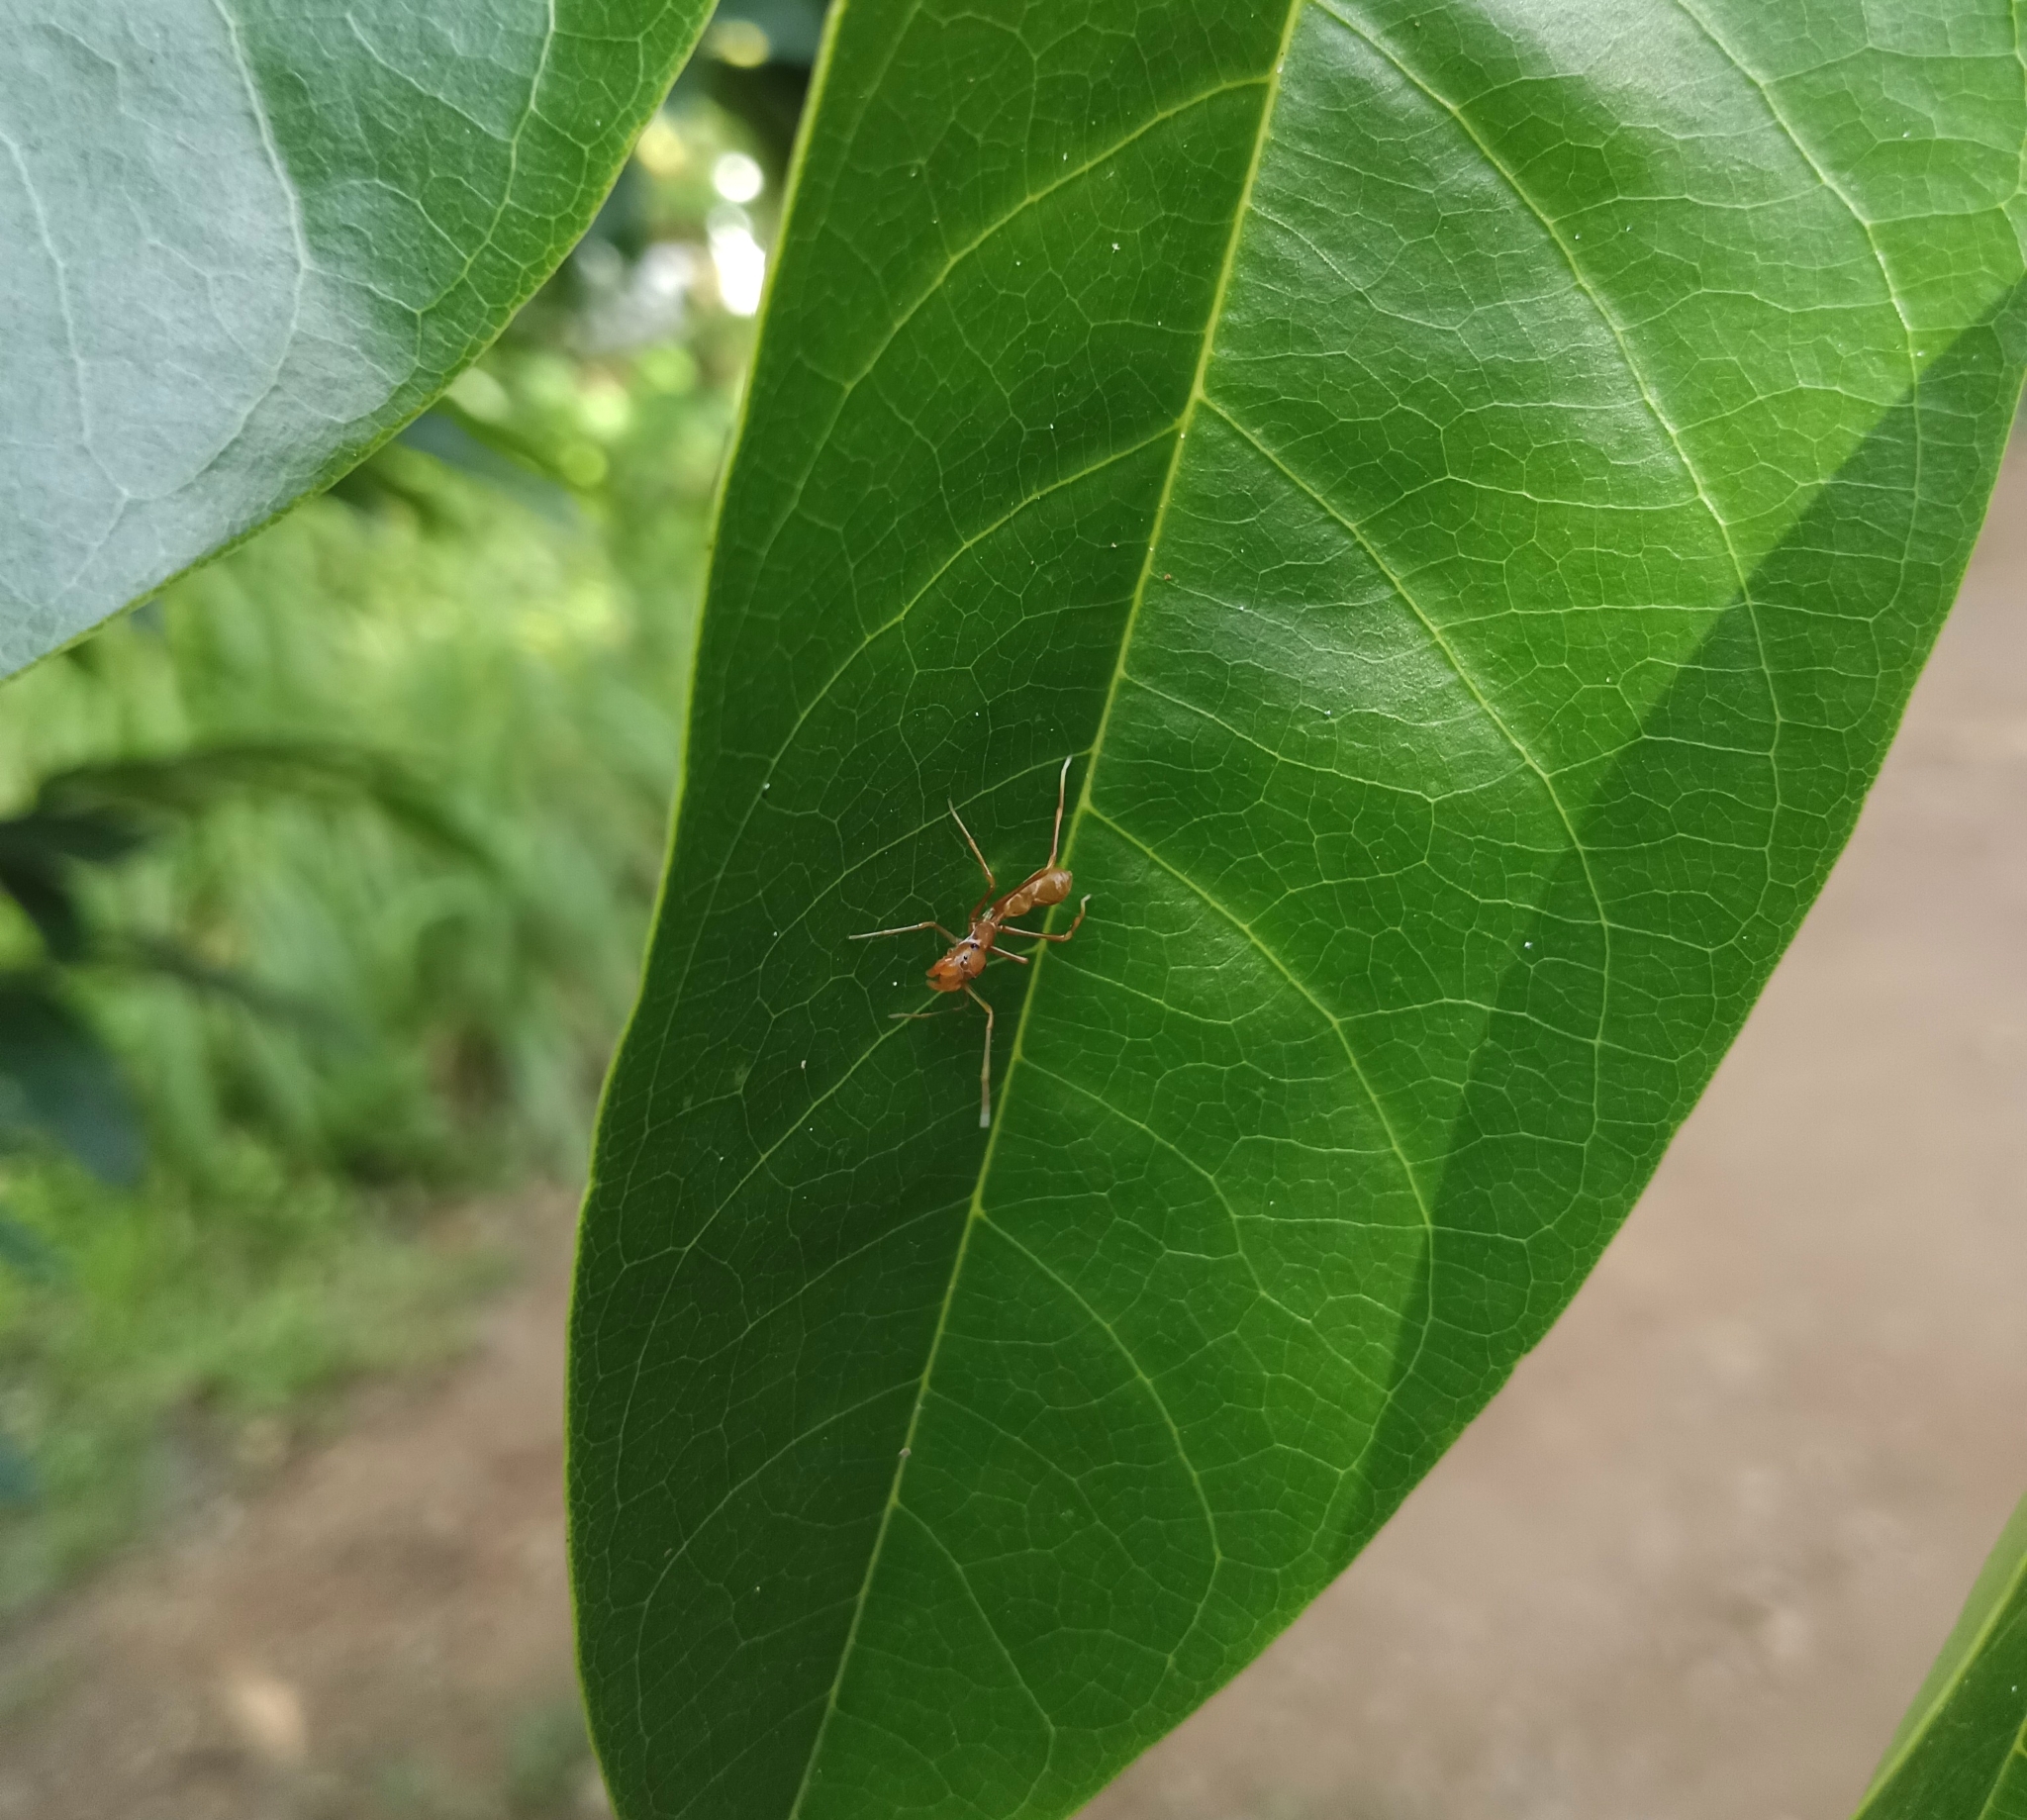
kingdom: Animalia
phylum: Arthropoda
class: Arachnida
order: Araneae
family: Salticidae
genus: Myrmaplata
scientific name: Myrmaplata plataleoides
